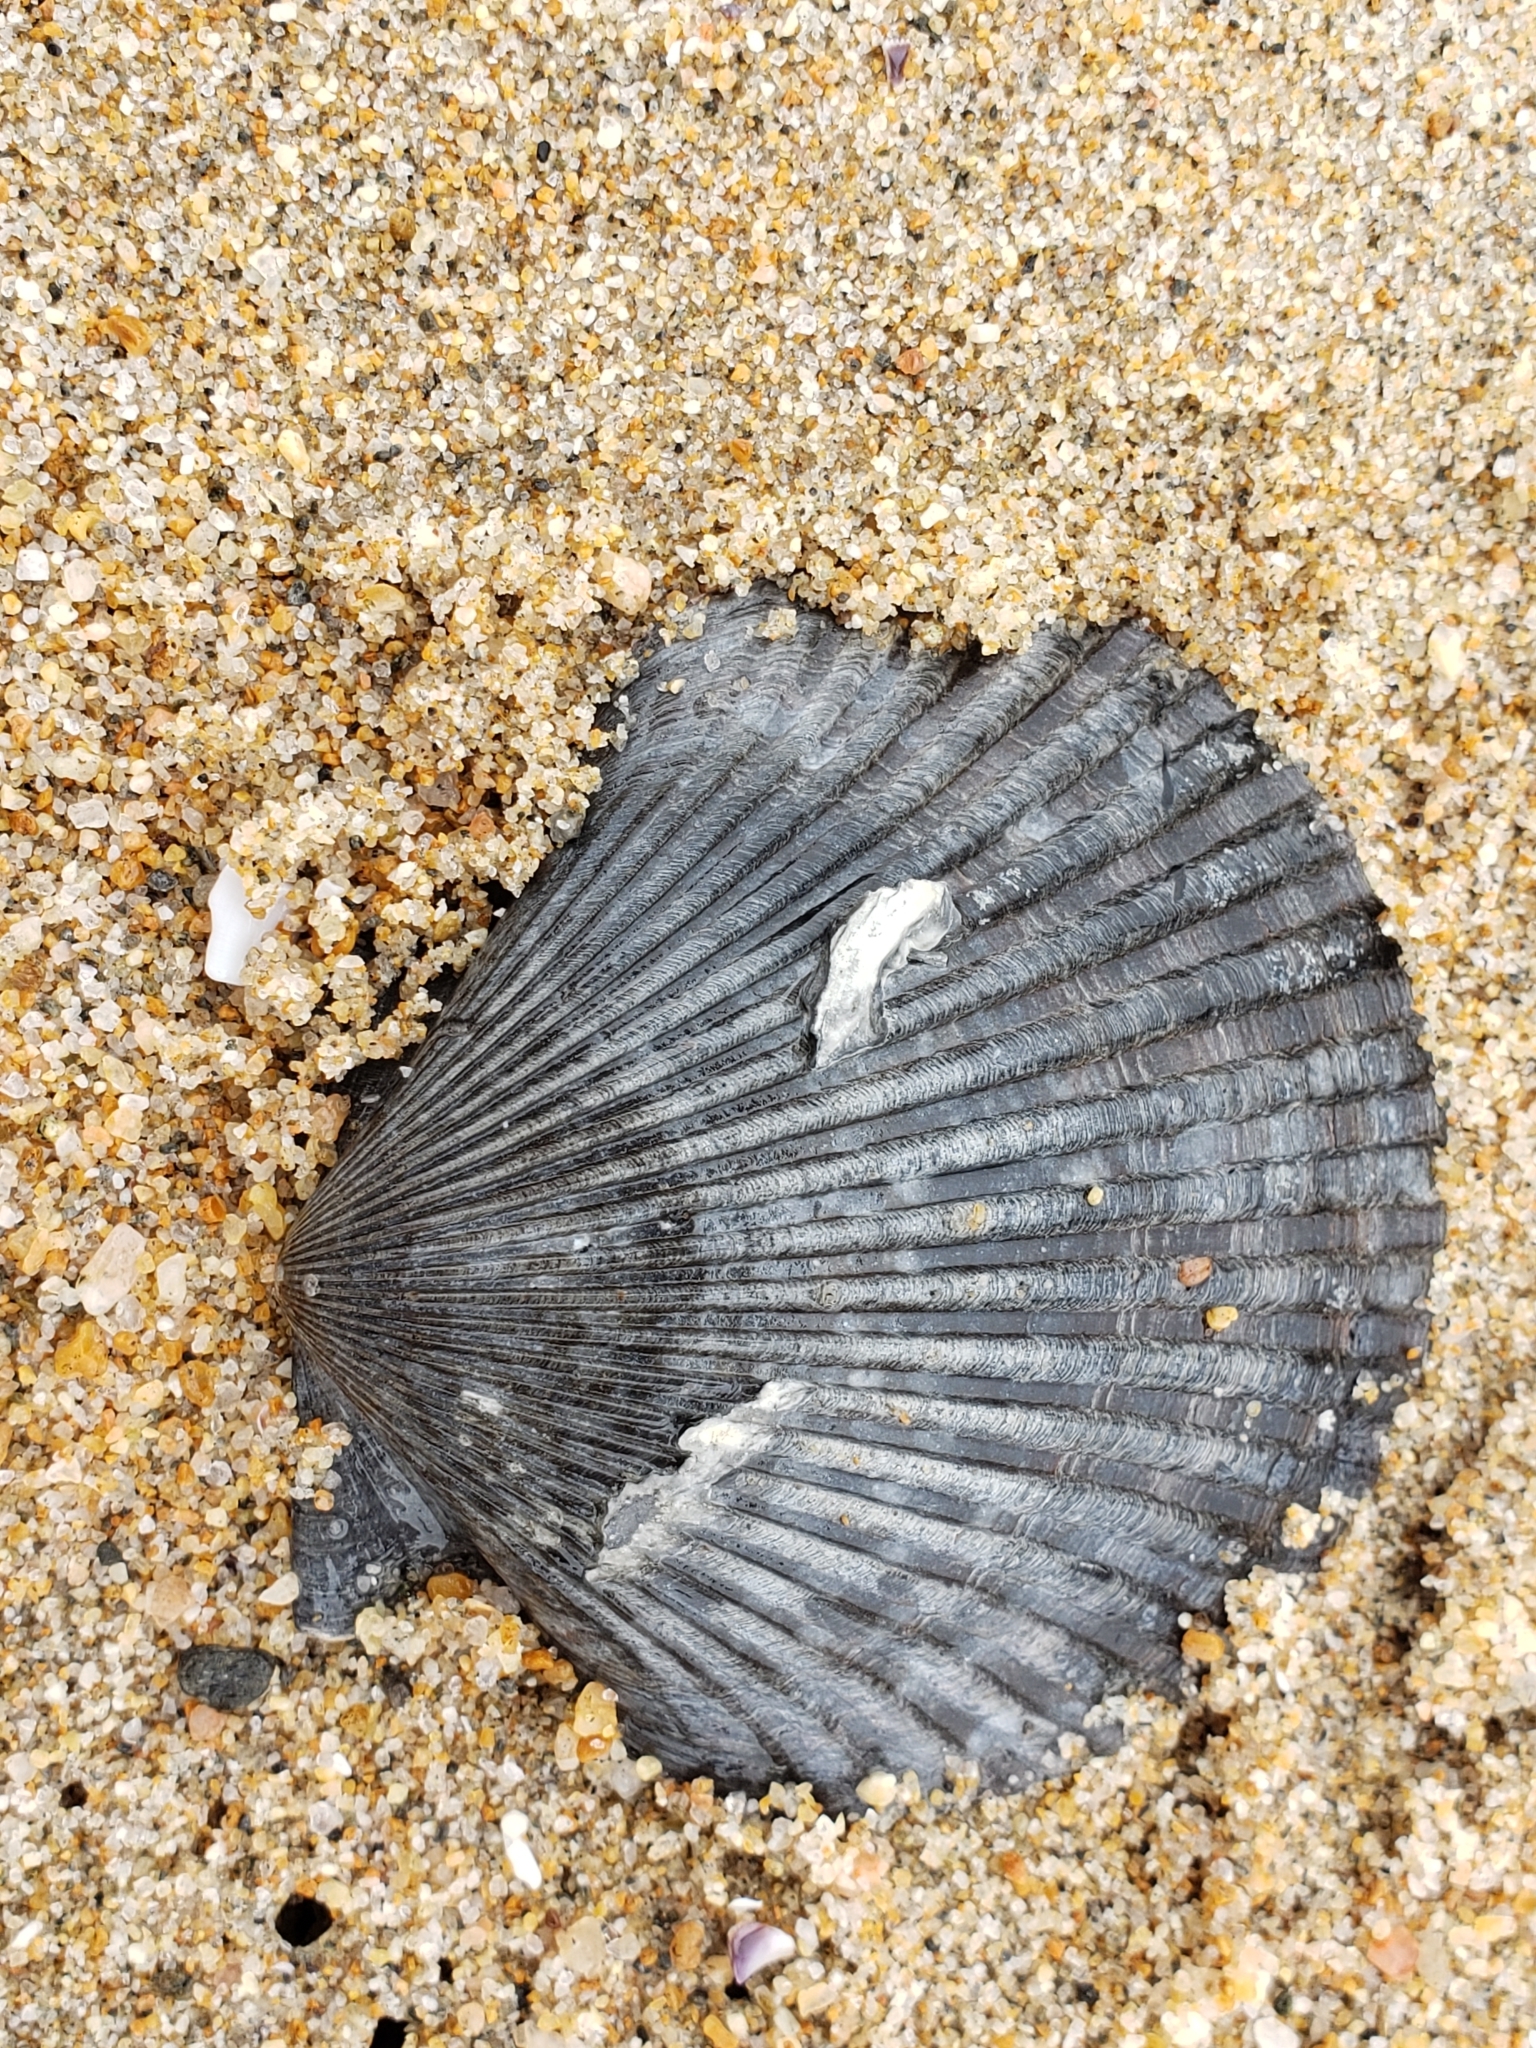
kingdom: Animalia
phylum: Mollusca
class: Bivalvia
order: Pectinida
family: Pectinidae
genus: Argopecten
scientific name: Argopecten ventricosus
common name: Catarina scallop
